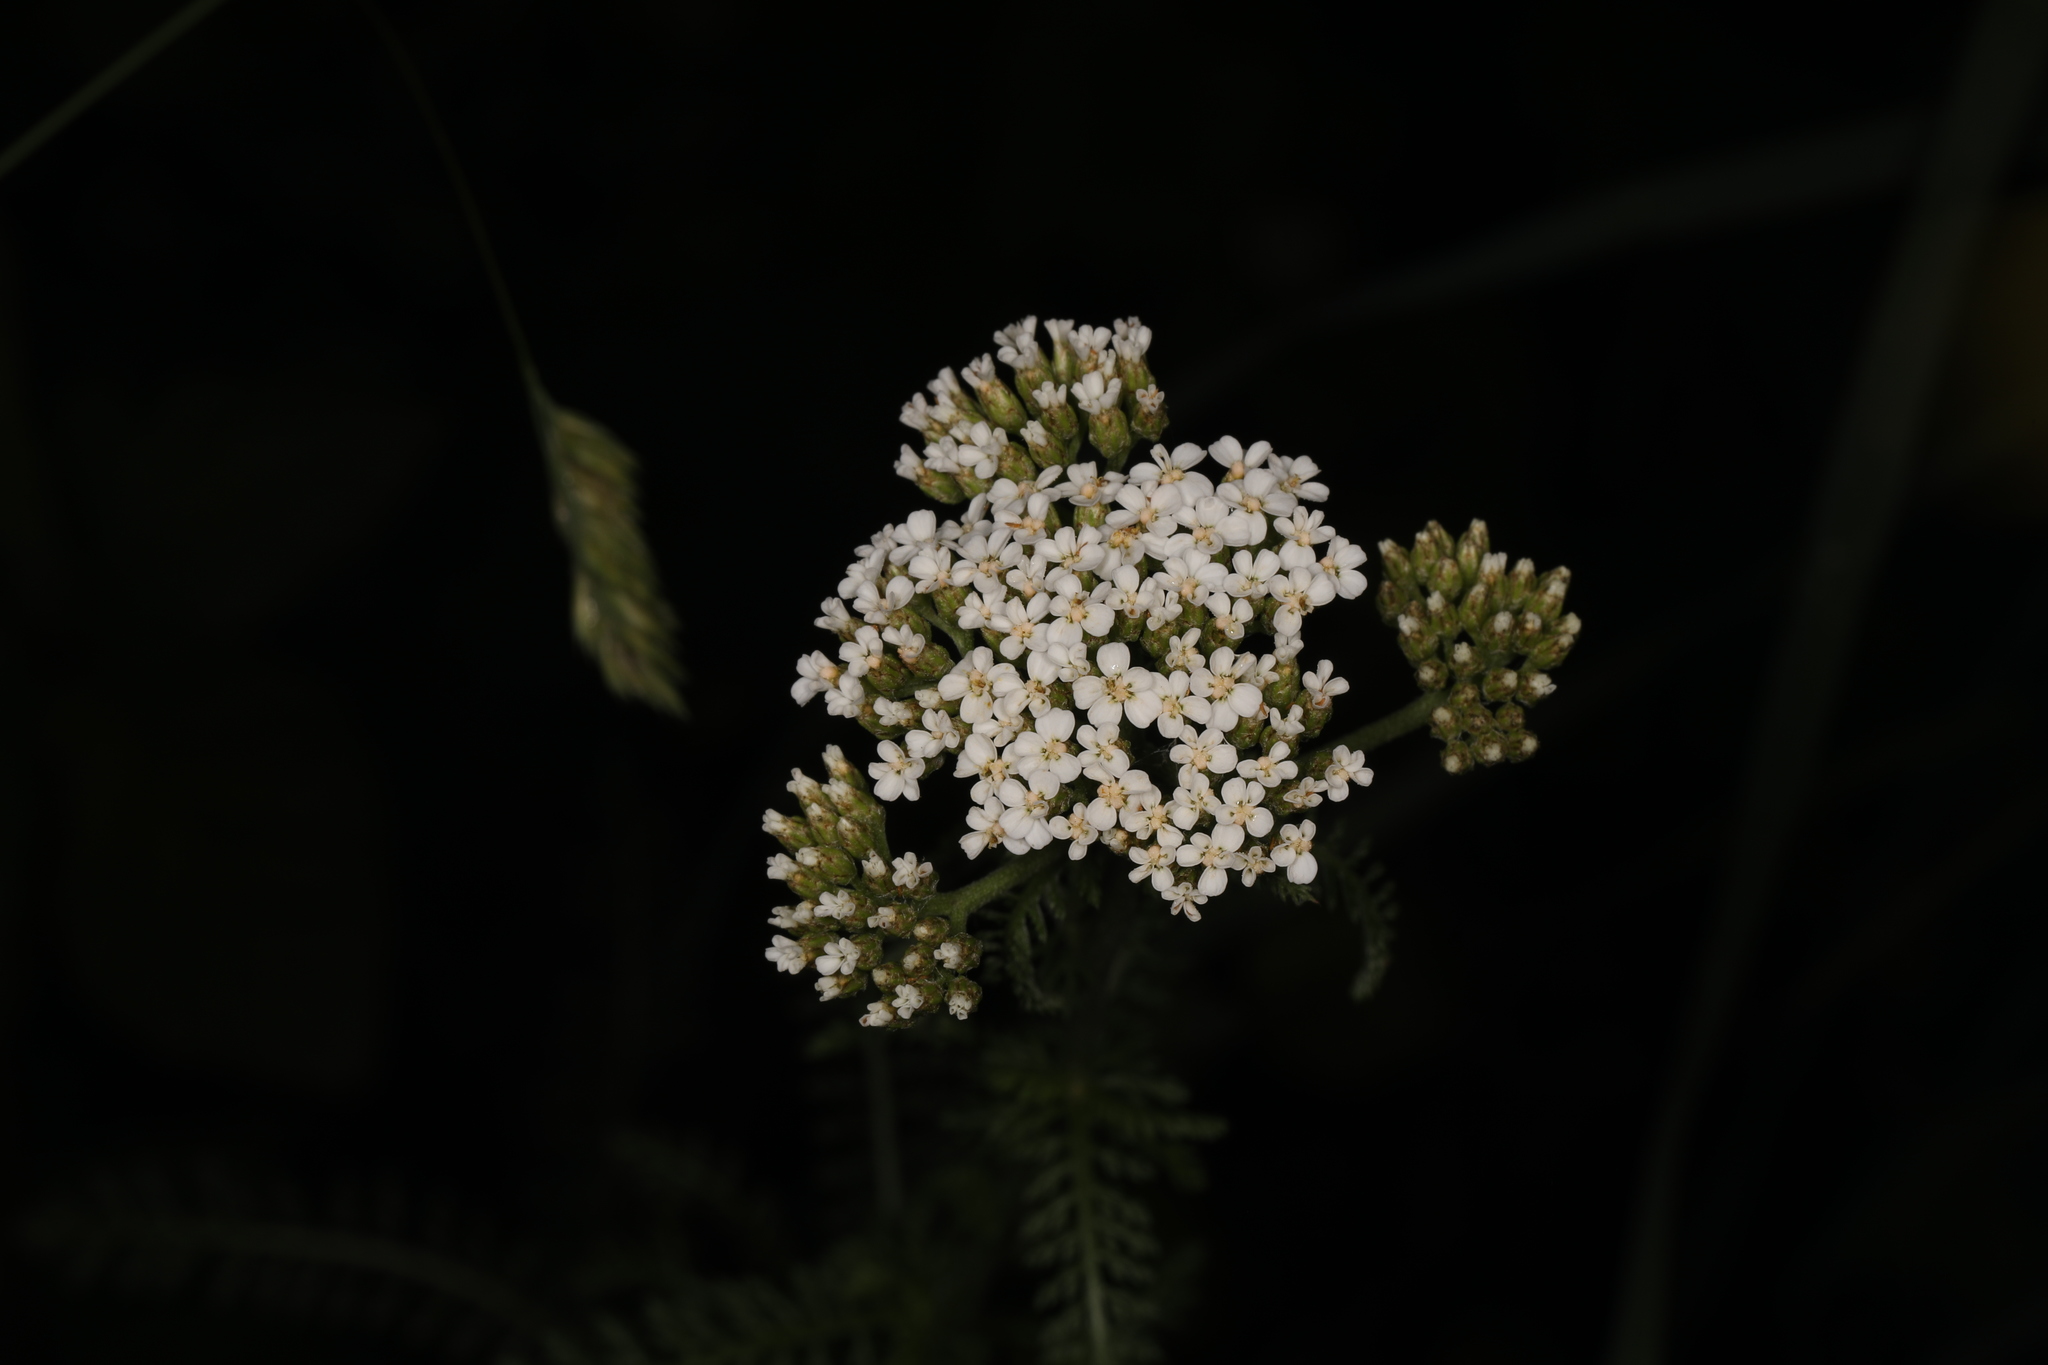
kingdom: Plantae
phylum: Tracheophyta
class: Magnoliopsida
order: Asterales
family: Asteraceae
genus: Achillea
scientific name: Achillea millefolium
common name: Yarrow
